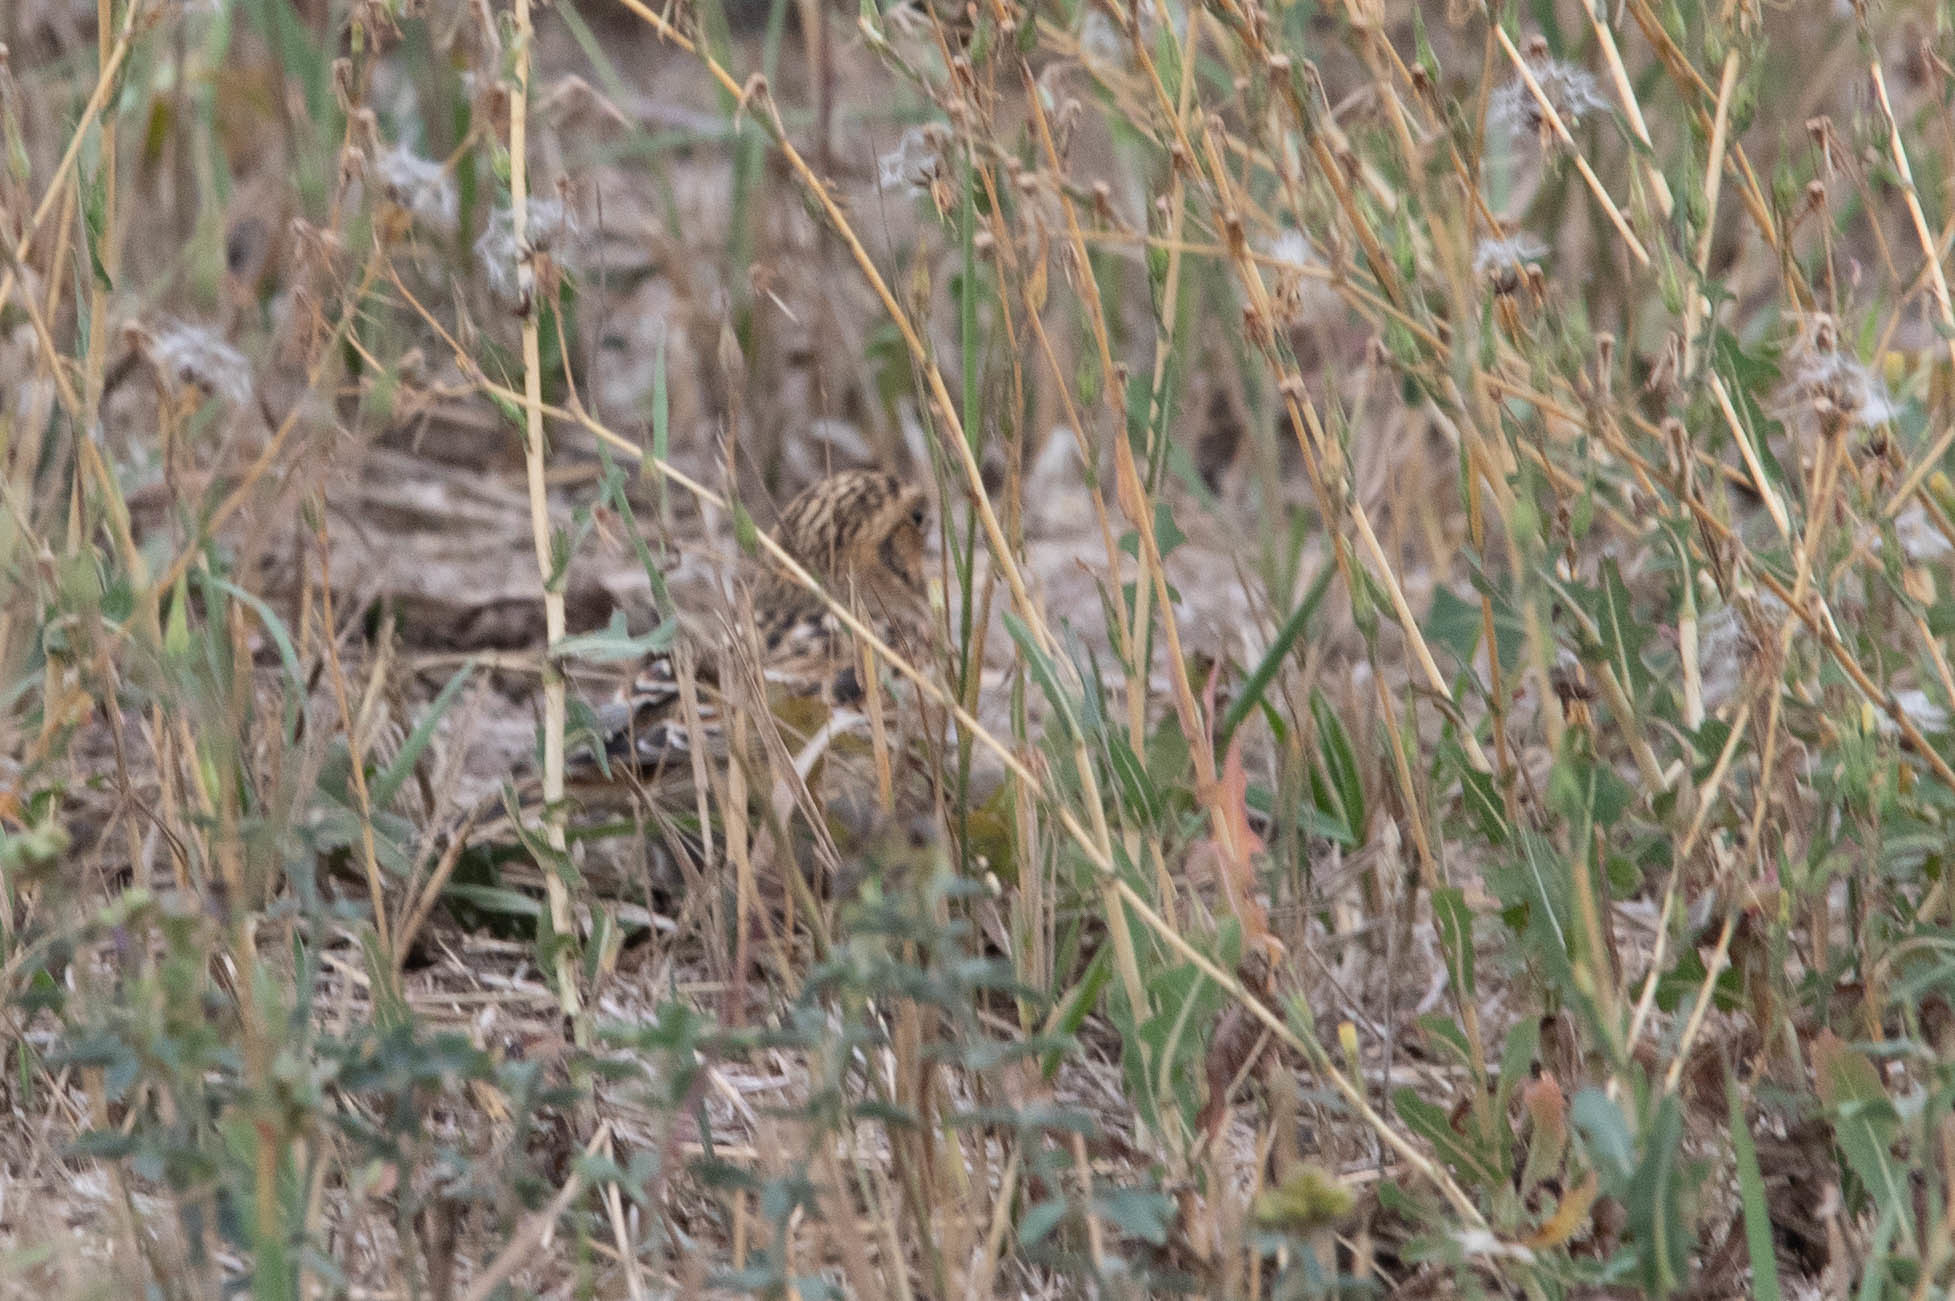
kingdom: Animalia
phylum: Chordata
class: Aves
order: Passeriformes
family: Calcariidae
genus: Calcarius
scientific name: Calcarius lapponicus
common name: Lapland longspur
